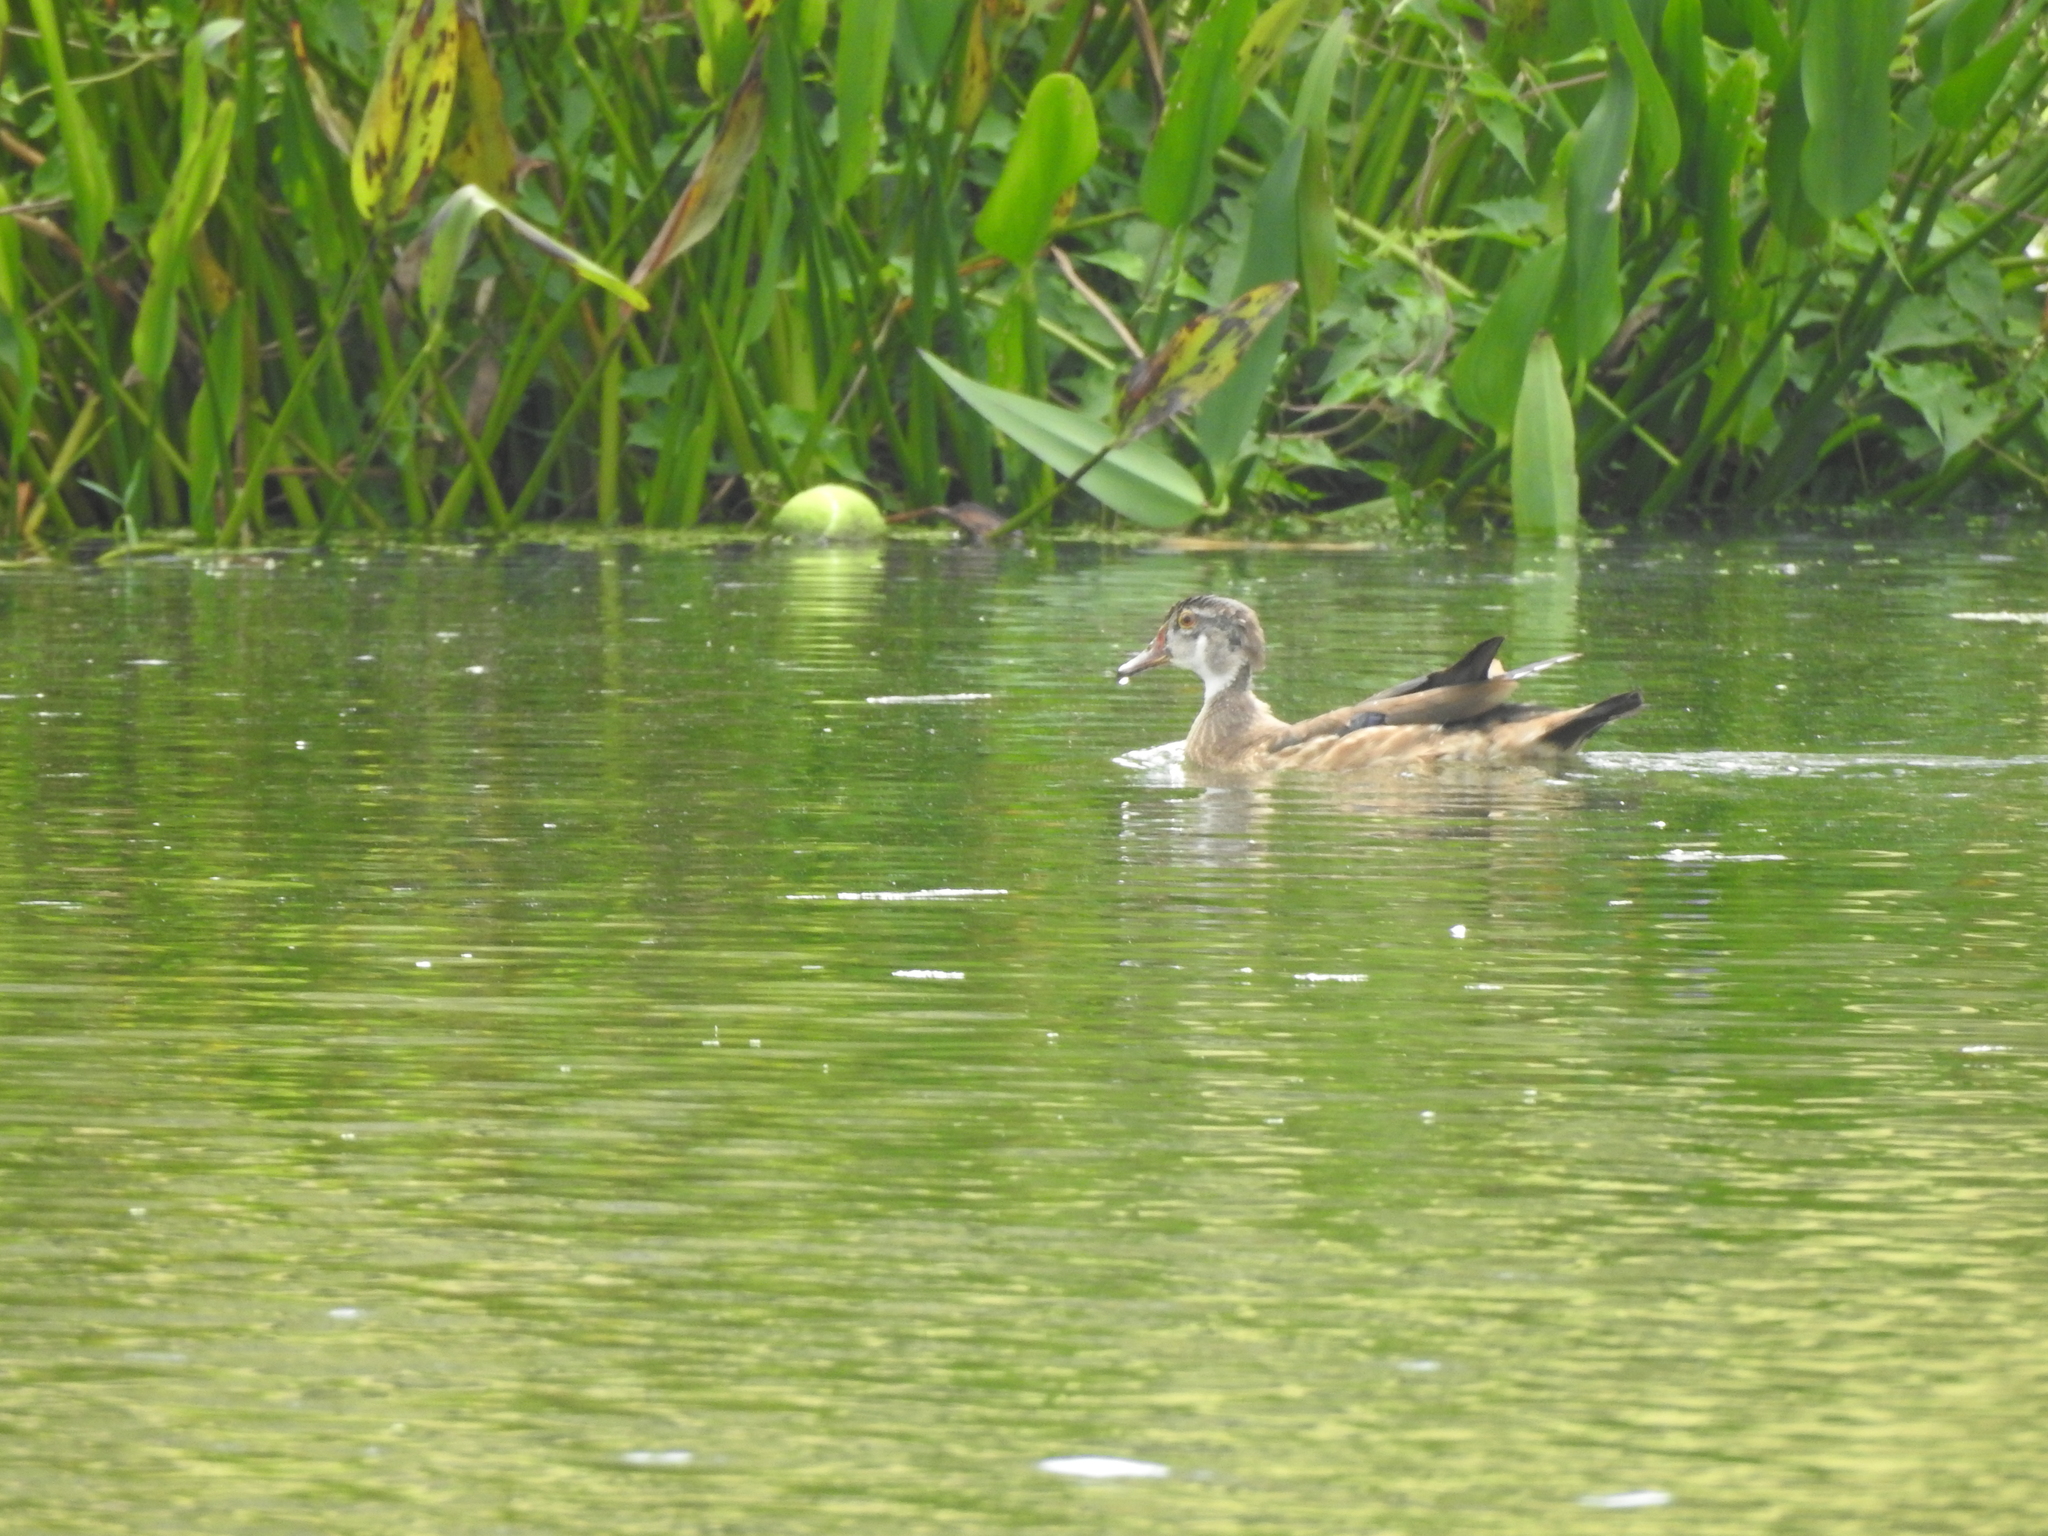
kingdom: Animalia
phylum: Chordata
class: Aves
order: Anseriformes
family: Anatidae
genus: Aix
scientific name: Aix sponsa
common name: Wood duck
